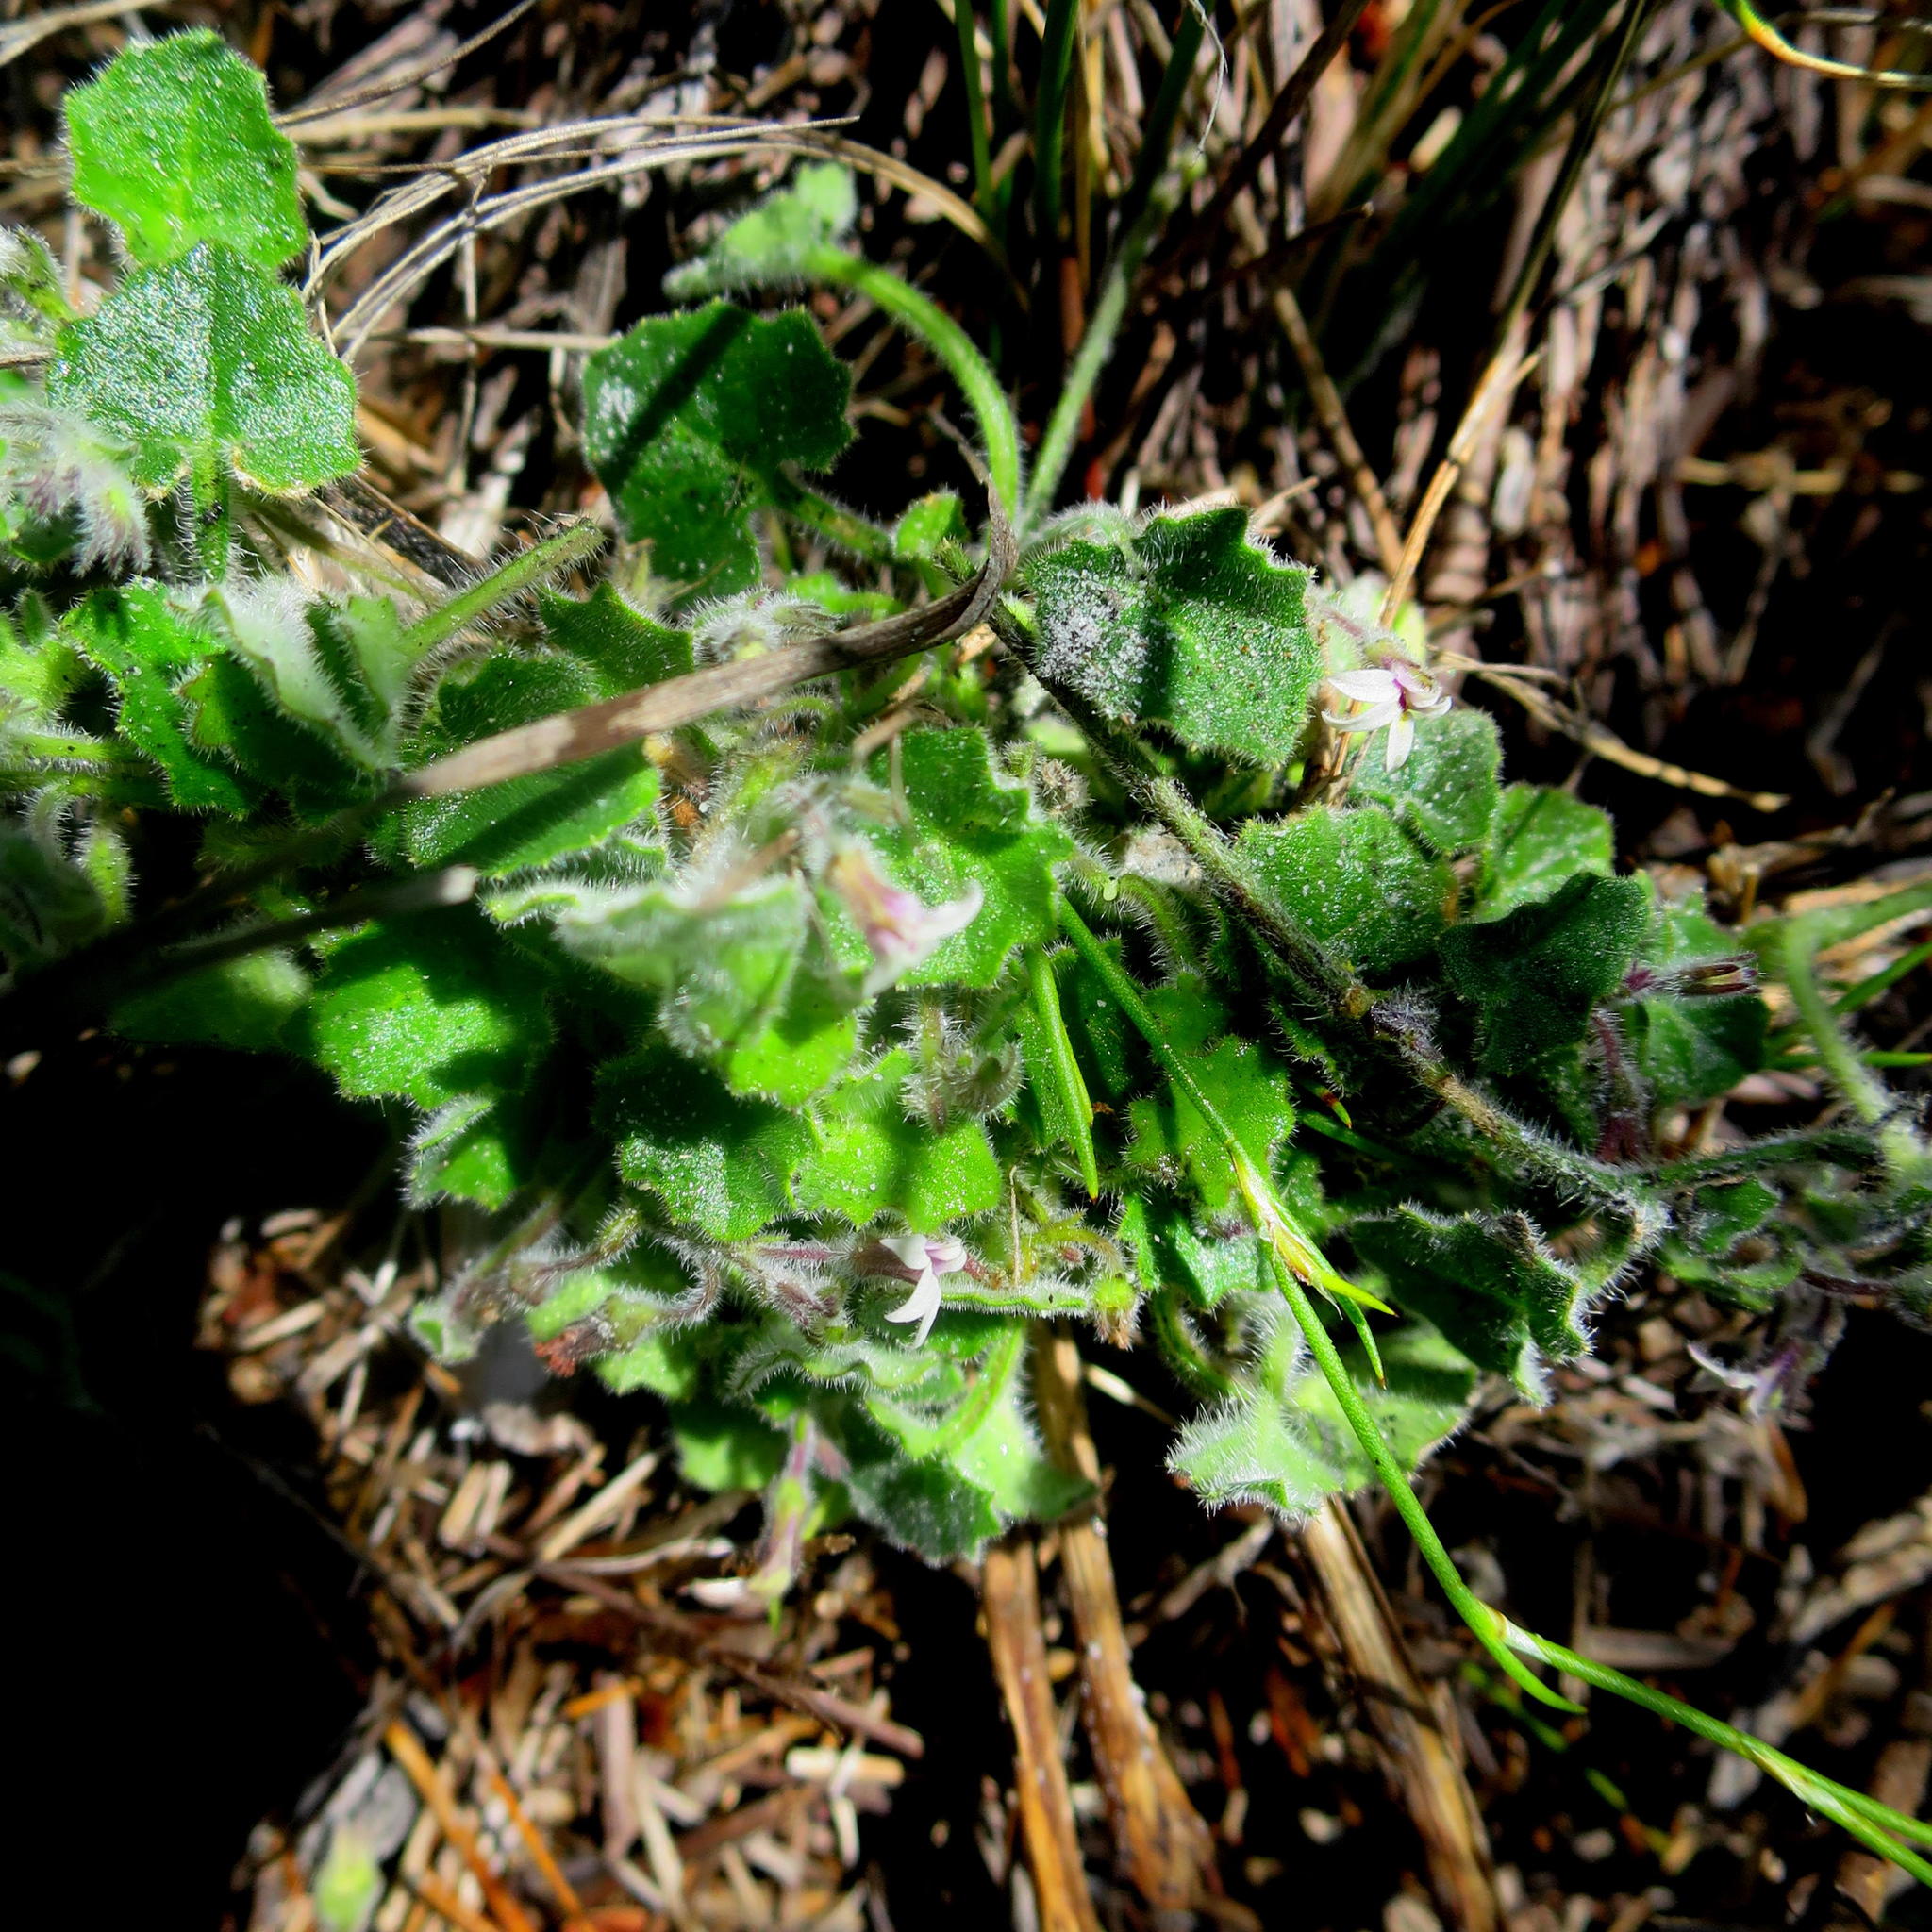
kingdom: Plantae
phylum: Tracheophyta
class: Magnoliopsida
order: Asterales
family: Campanulaceae
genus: Lobelia
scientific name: Lobelia ardisiandroides
